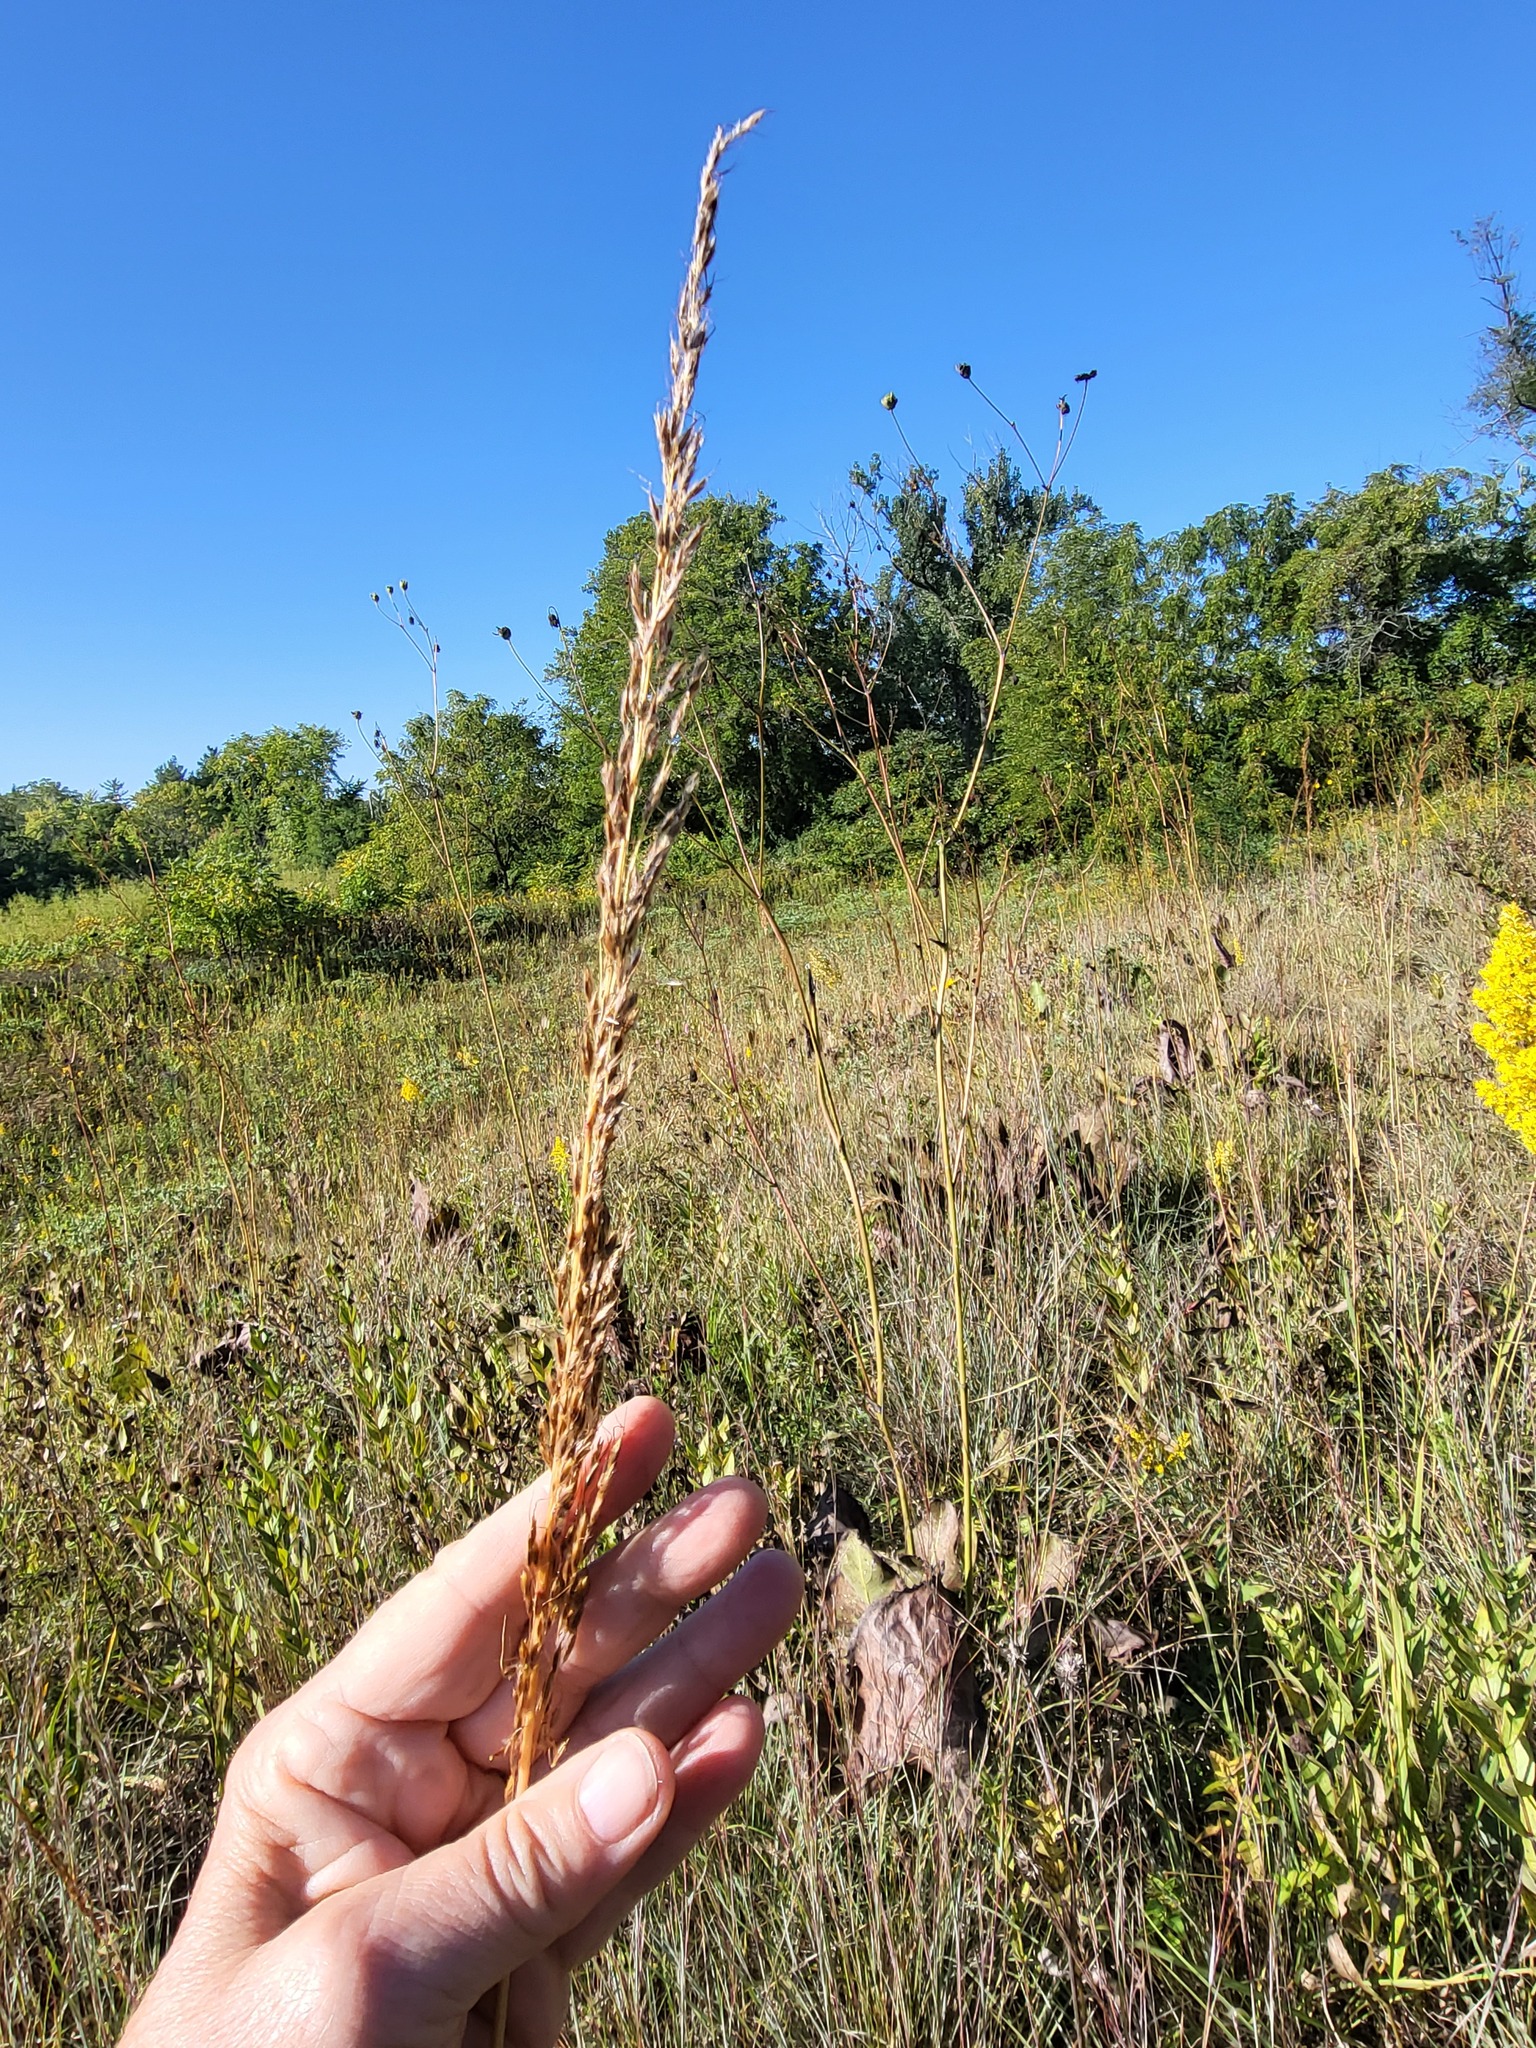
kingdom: Plantae
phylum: Tracheophyta
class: Liliopsida
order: Poales
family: Poaceae
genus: Sorghastrum
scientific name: Sorghastrum nutans
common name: Indian grass
